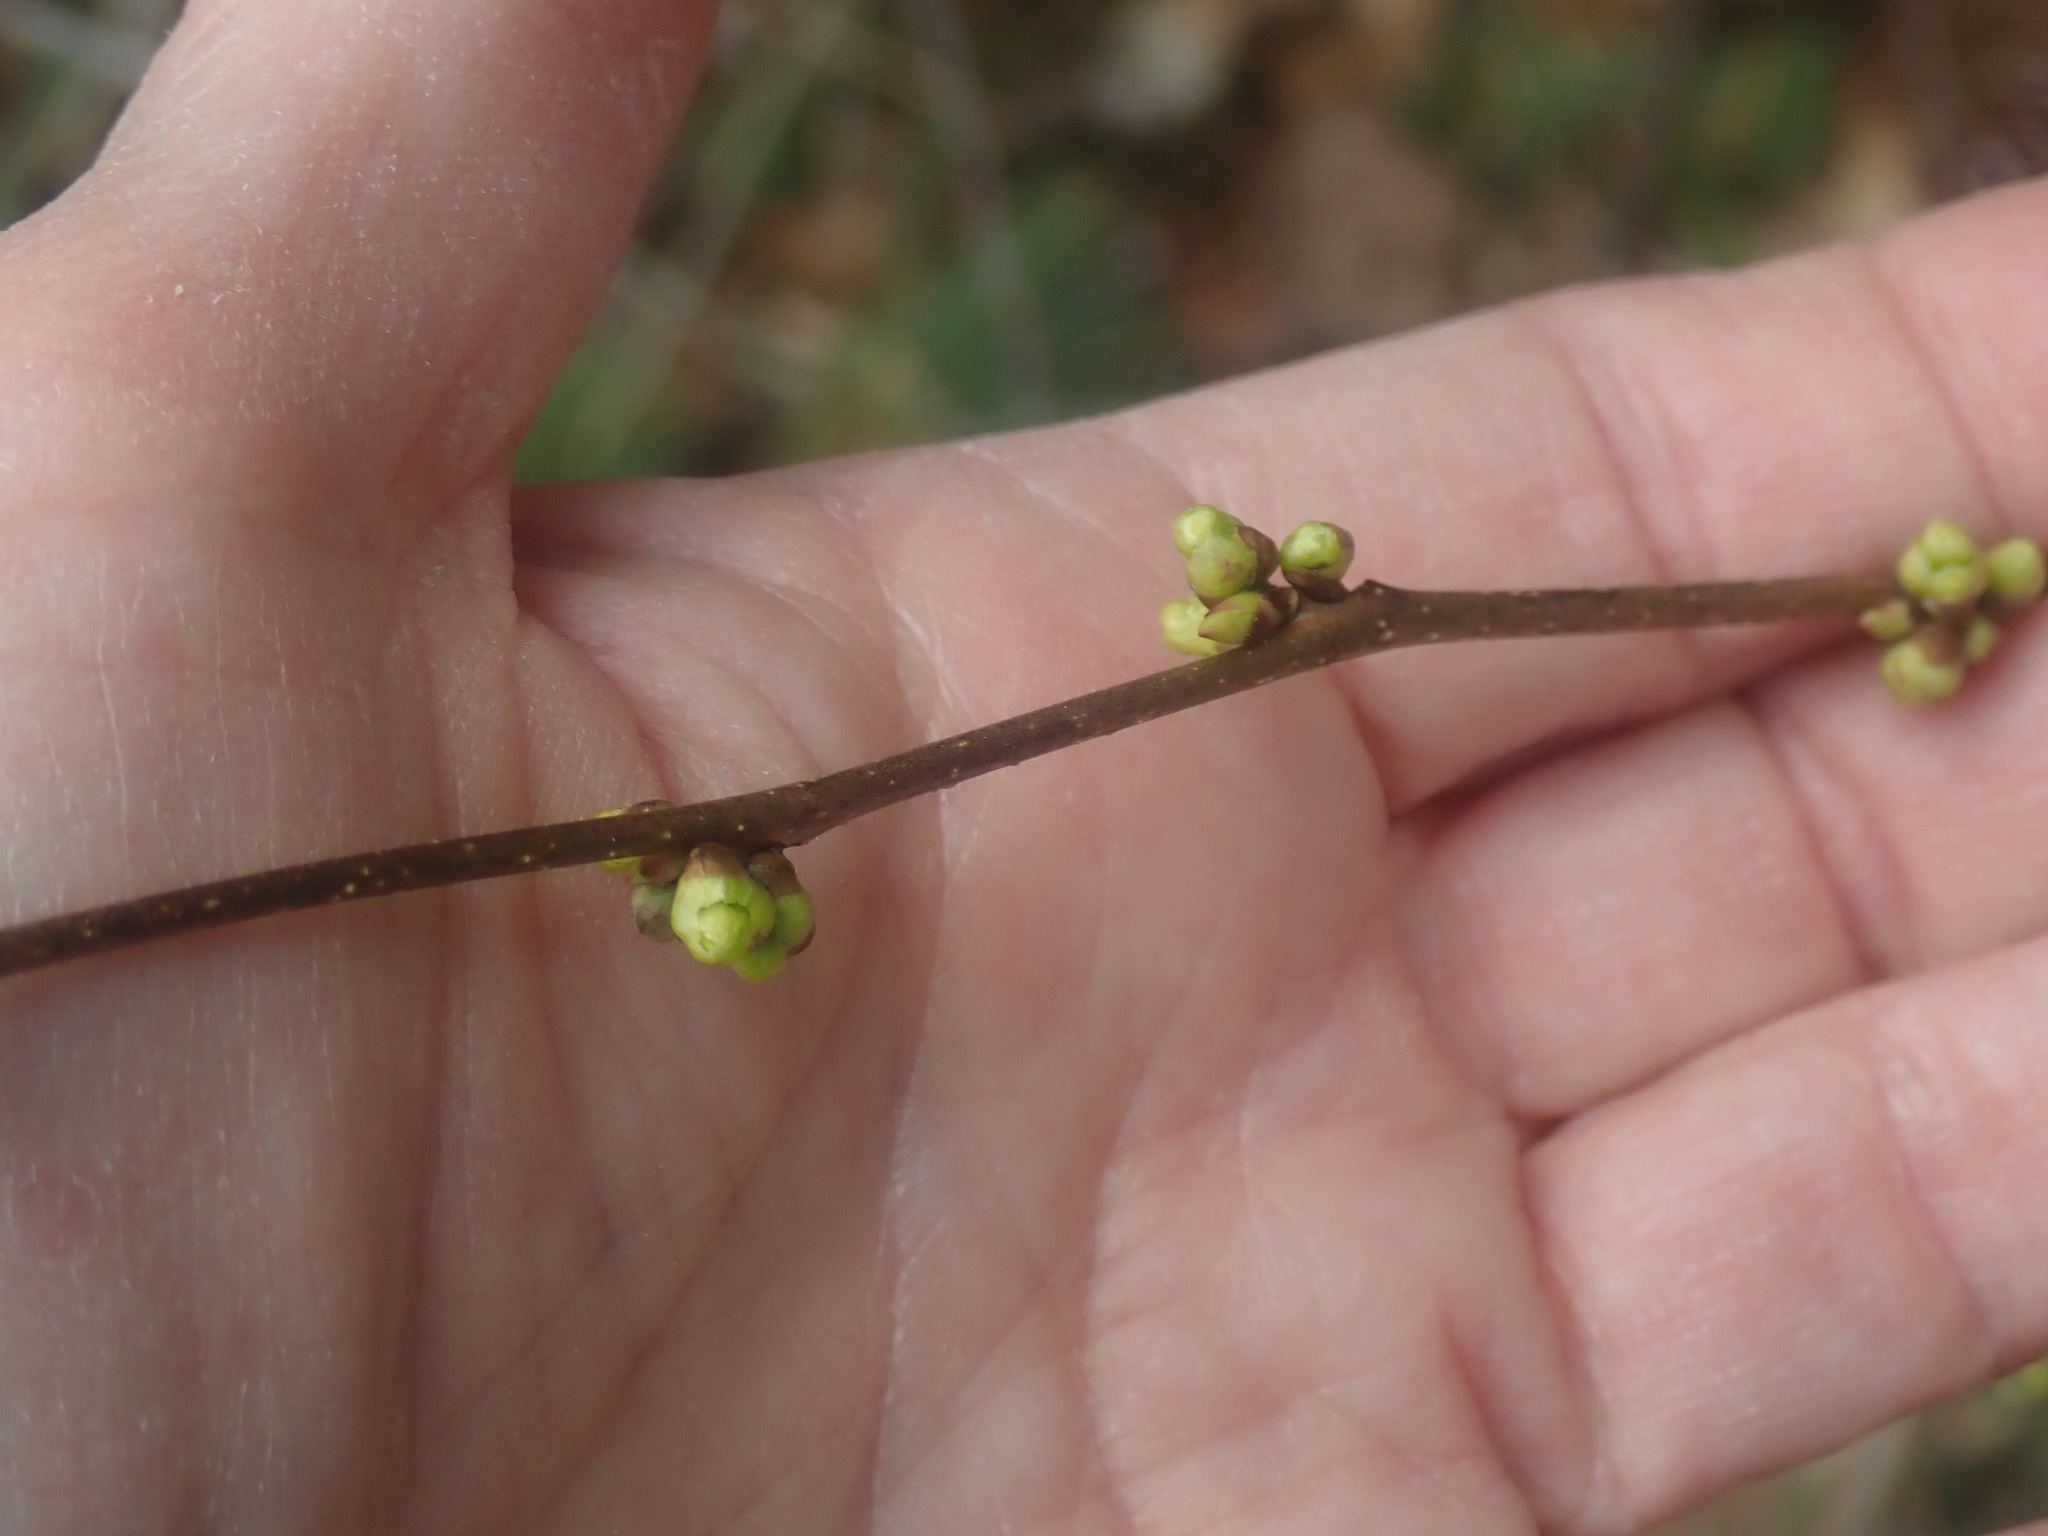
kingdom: Plantae
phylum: Tracheophyta
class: Magnoliopsida
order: Laurales
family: Lauraceae
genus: Lindera
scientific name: Lindera benzoin
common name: Spicebush
